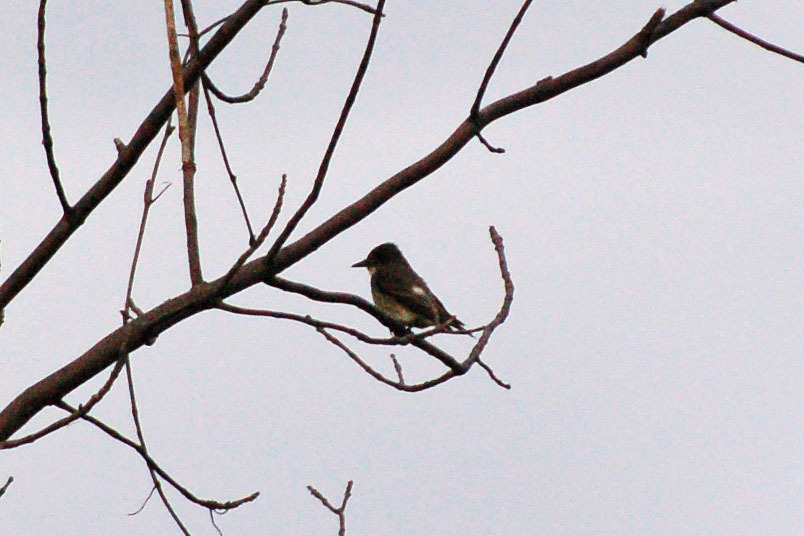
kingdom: Animalia
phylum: Chordata
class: Aves
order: Passeriformes
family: Tyrannidae
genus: Contopus
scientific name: Contopus cooperi
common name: Olive-sided flycatcher
